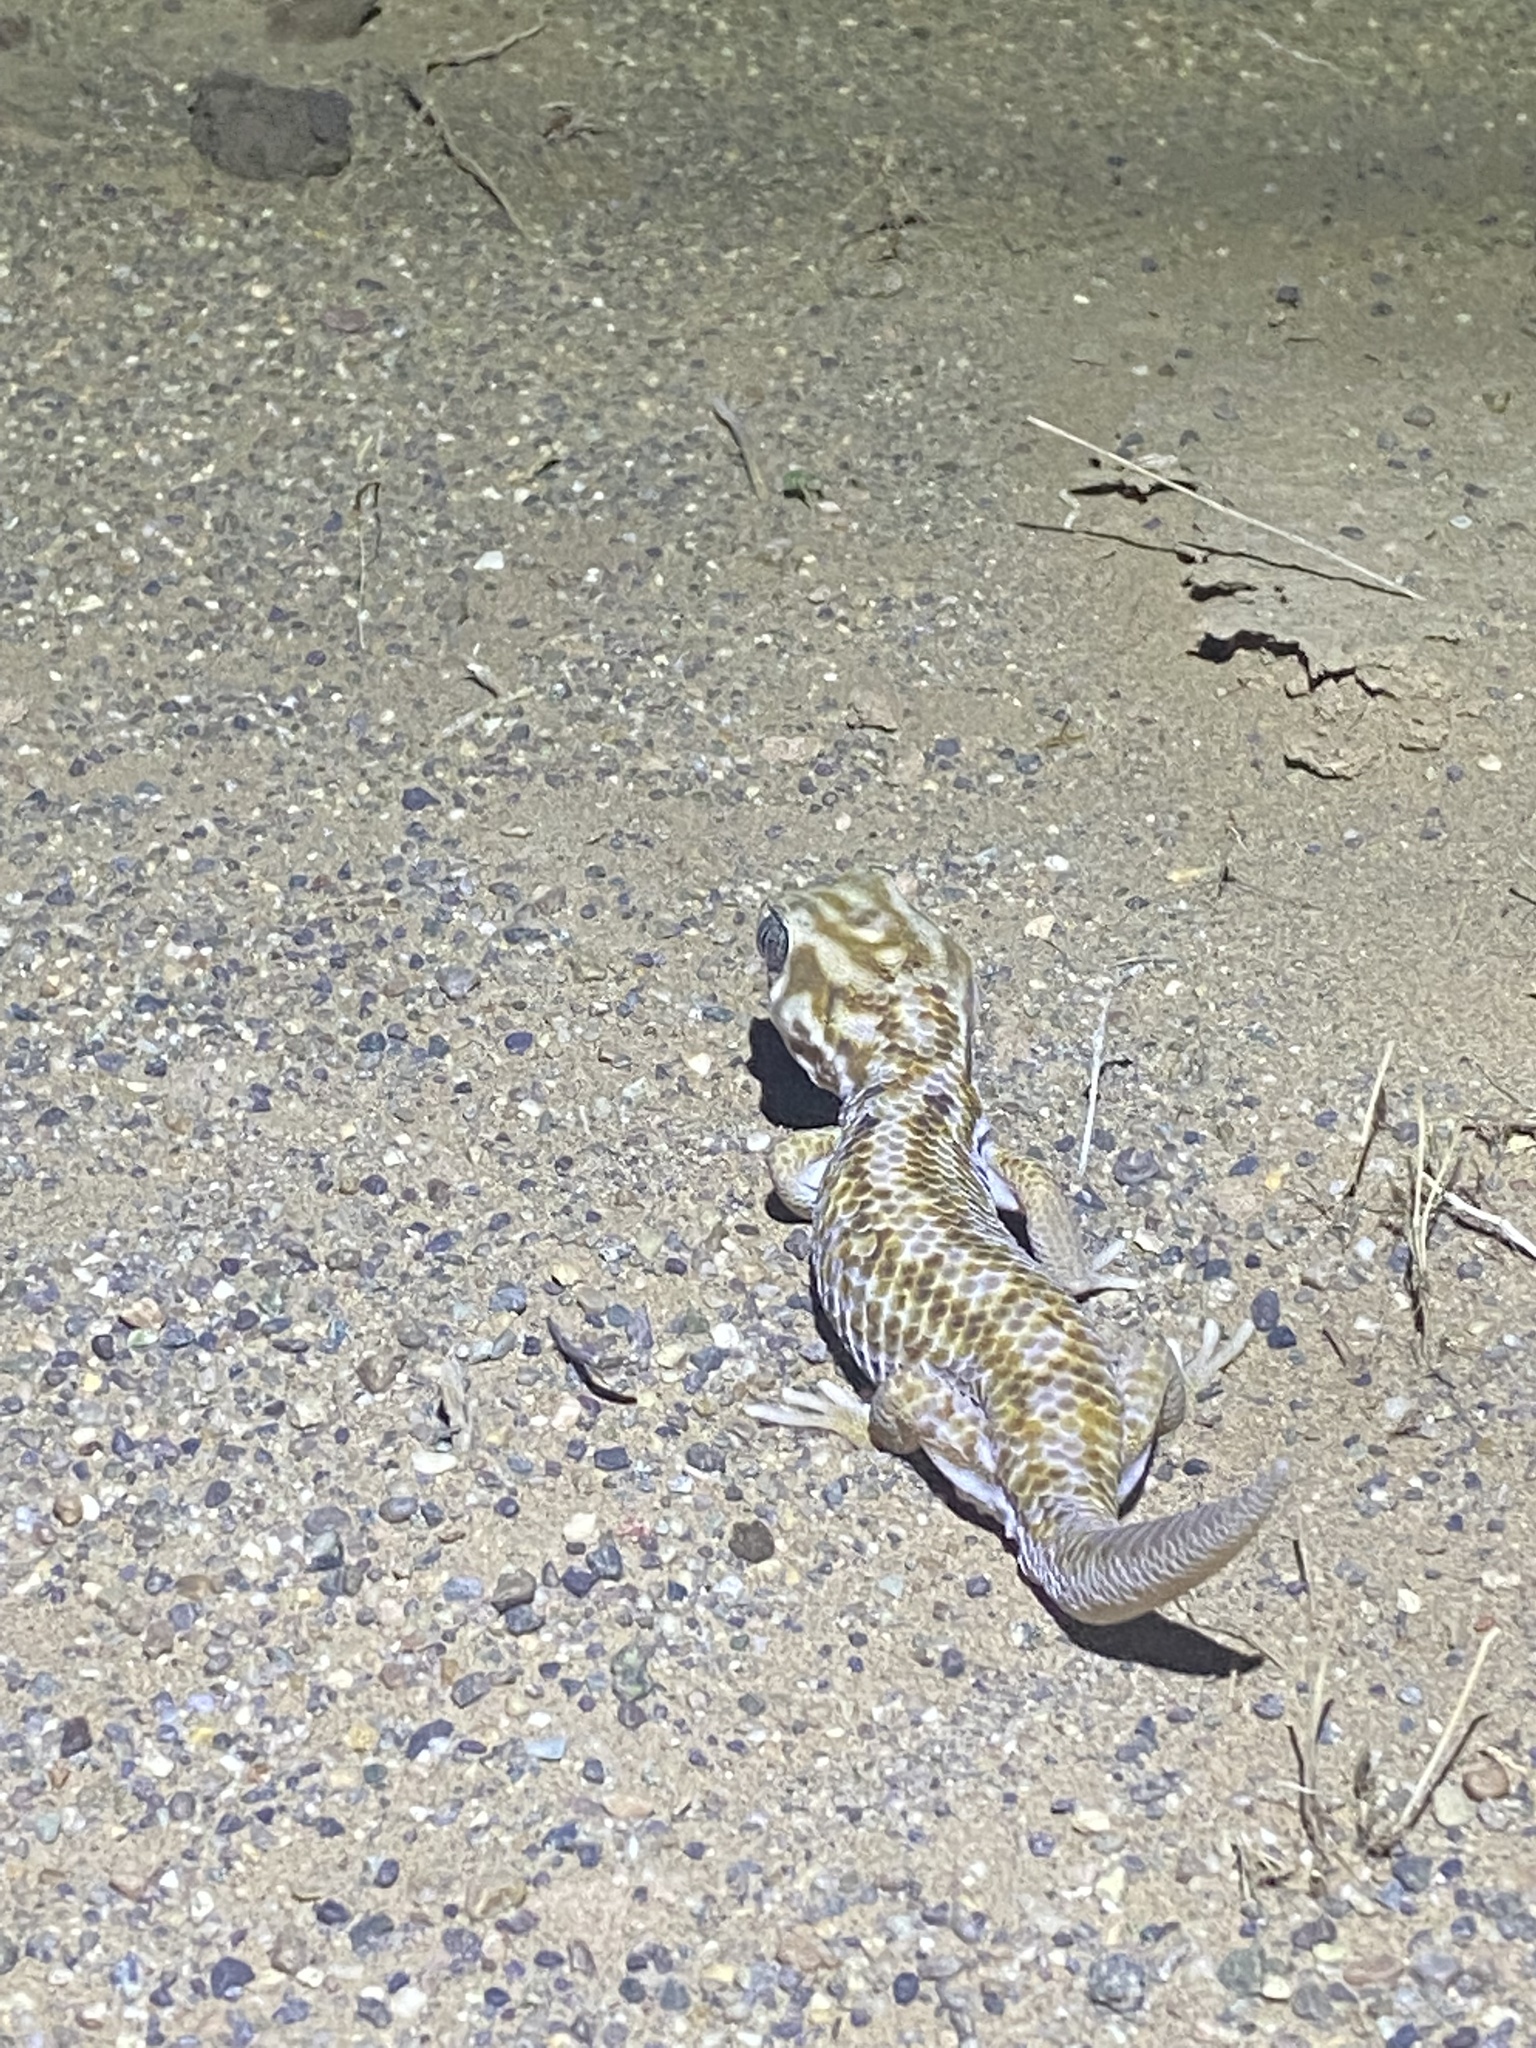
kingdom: Animalia
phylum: Chordata
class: Squamata
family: Sphaerodactylidae
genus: Teratoscincus
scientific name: Teratoscincus keyserlingii
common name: Frog-eyed gecko
